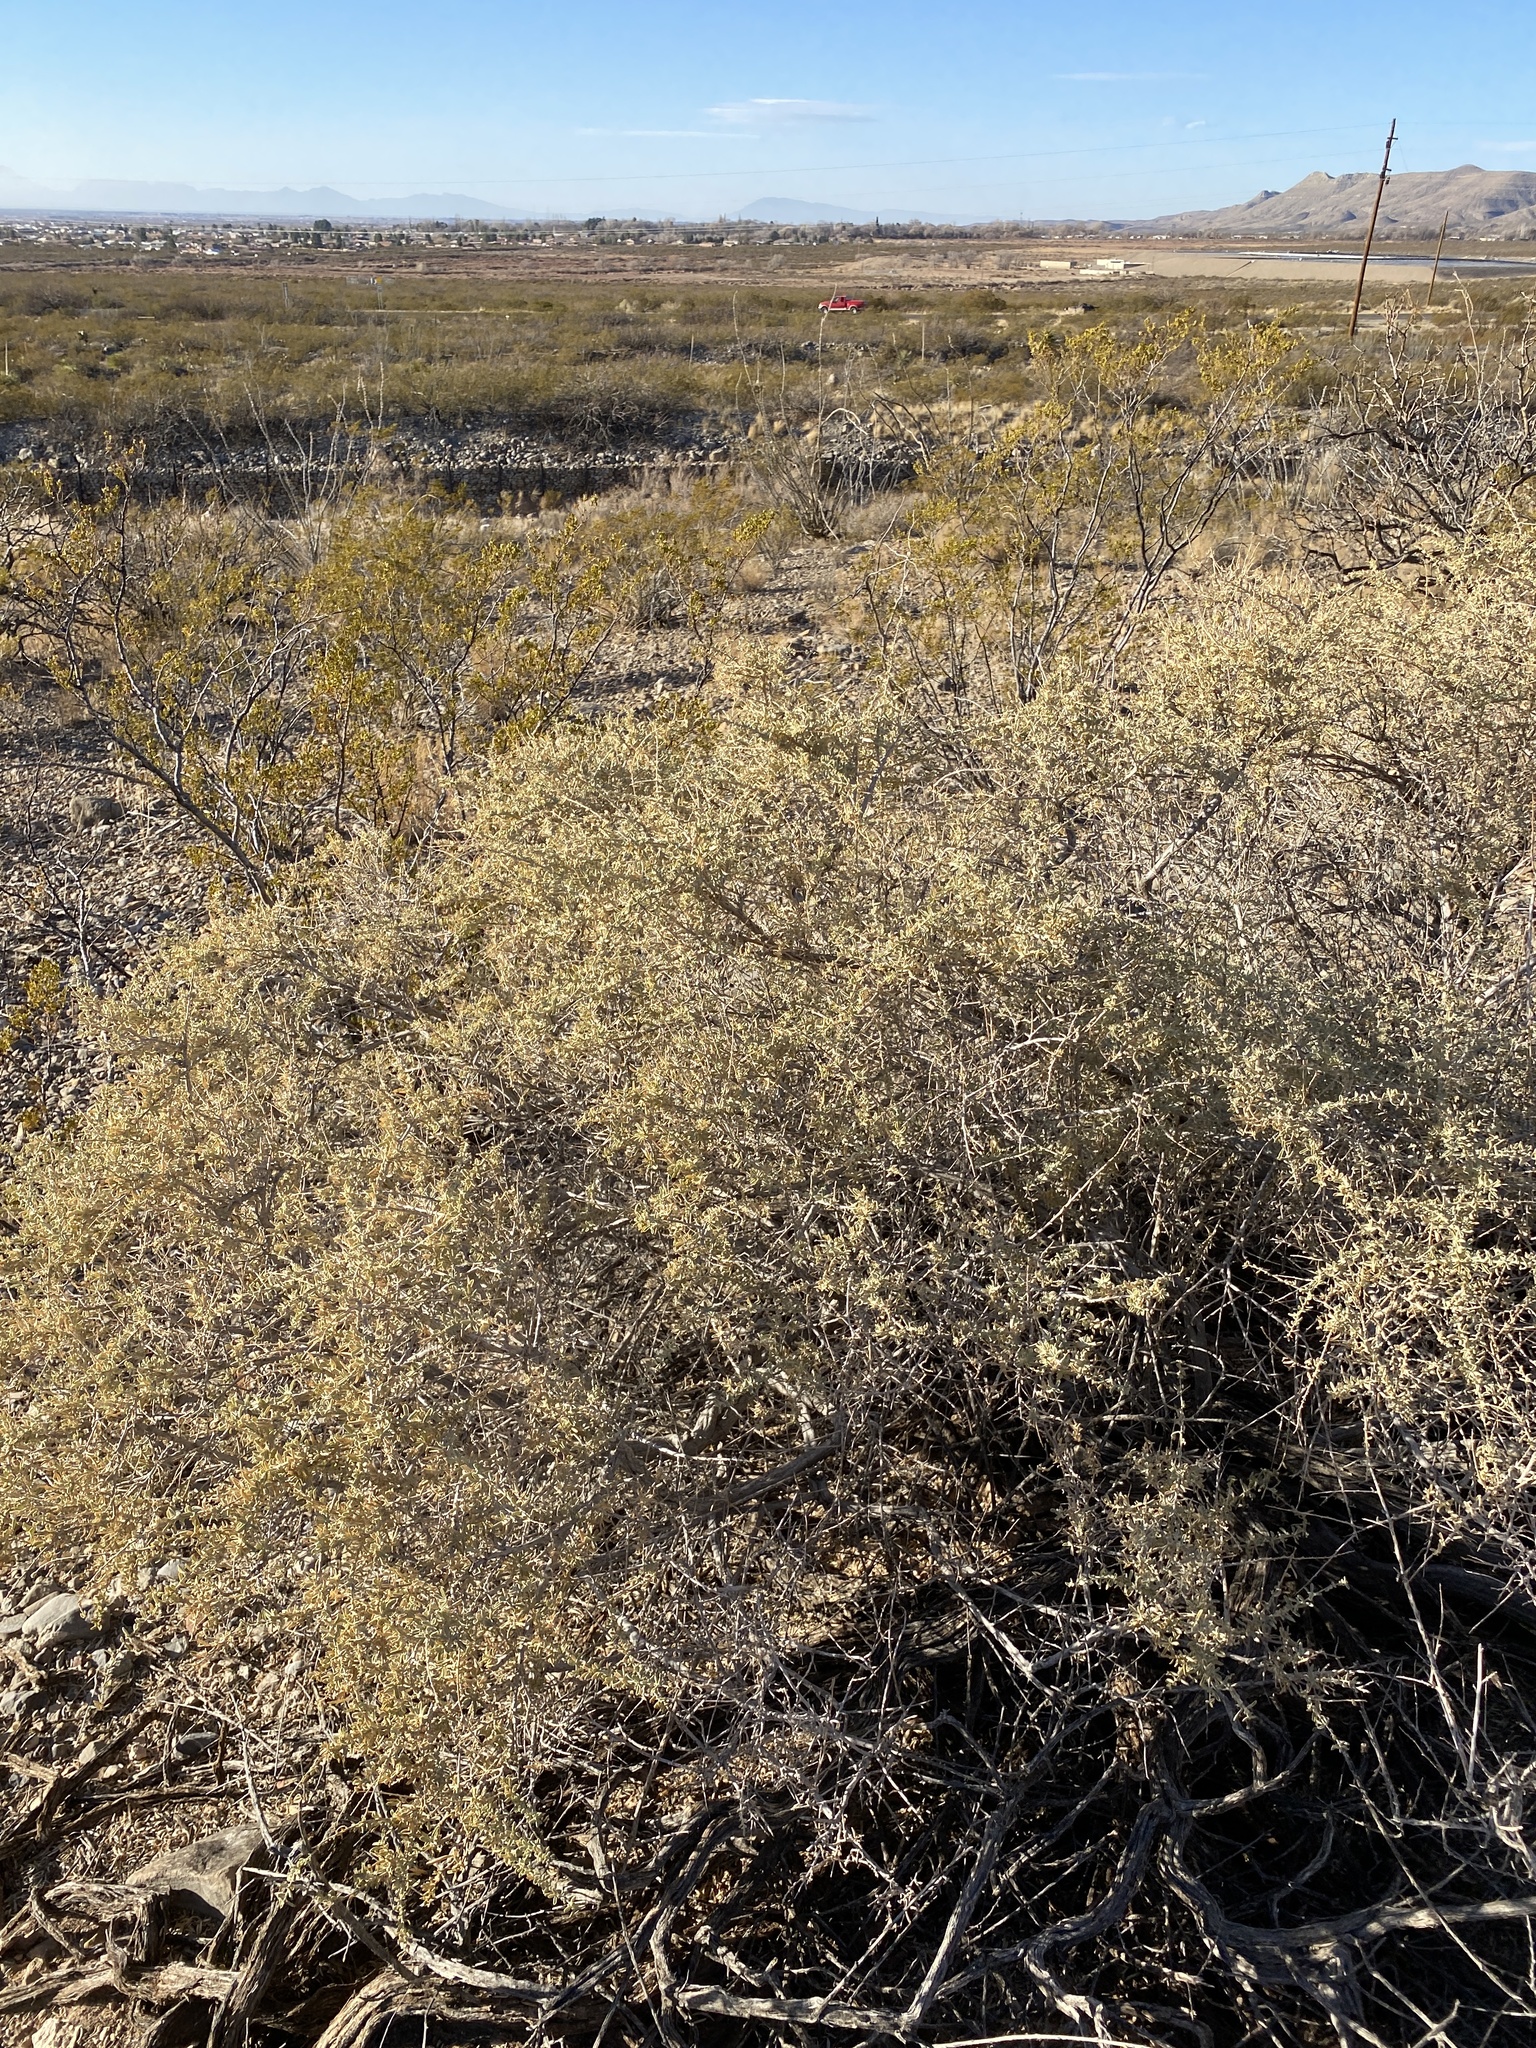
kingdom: Plantae
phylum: Tracheophyta
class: Magnoliopsida
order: Caryophyllales
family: Amaranthaceae
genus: Atriplex
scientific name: Atriplex canescens
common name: Four-wing saltbush
